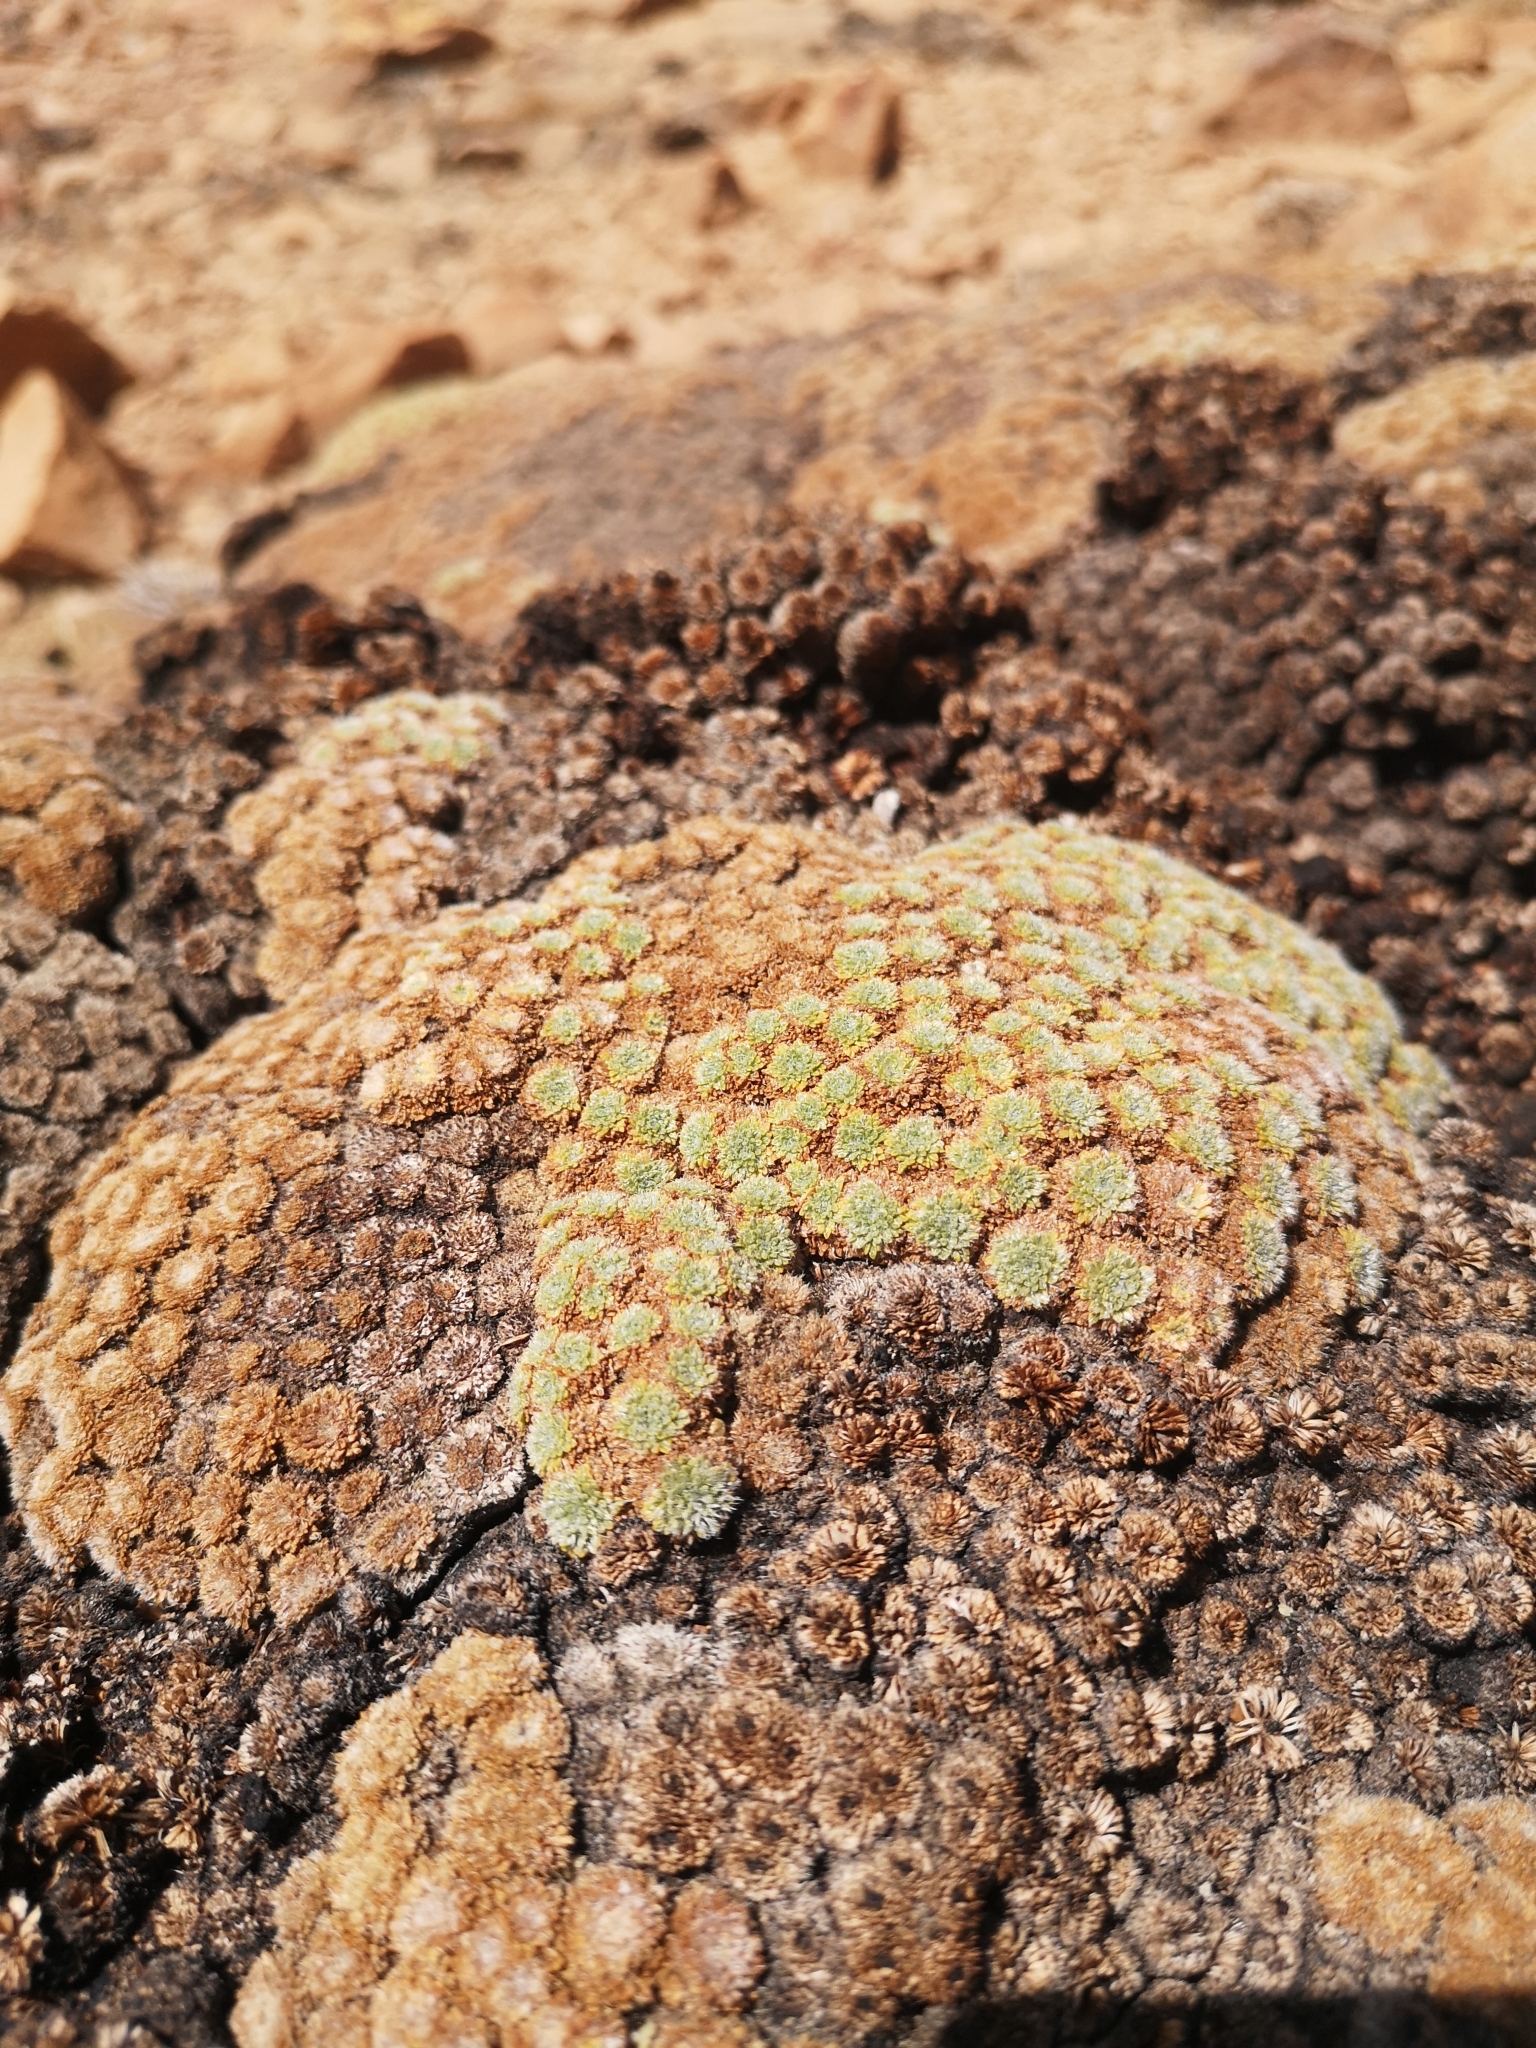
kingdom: Plantae
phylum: Tracheophyta
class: Magnoliopsida
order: Apiales
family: Apiaceae
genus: Azorella
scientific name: Azorella madreporica
